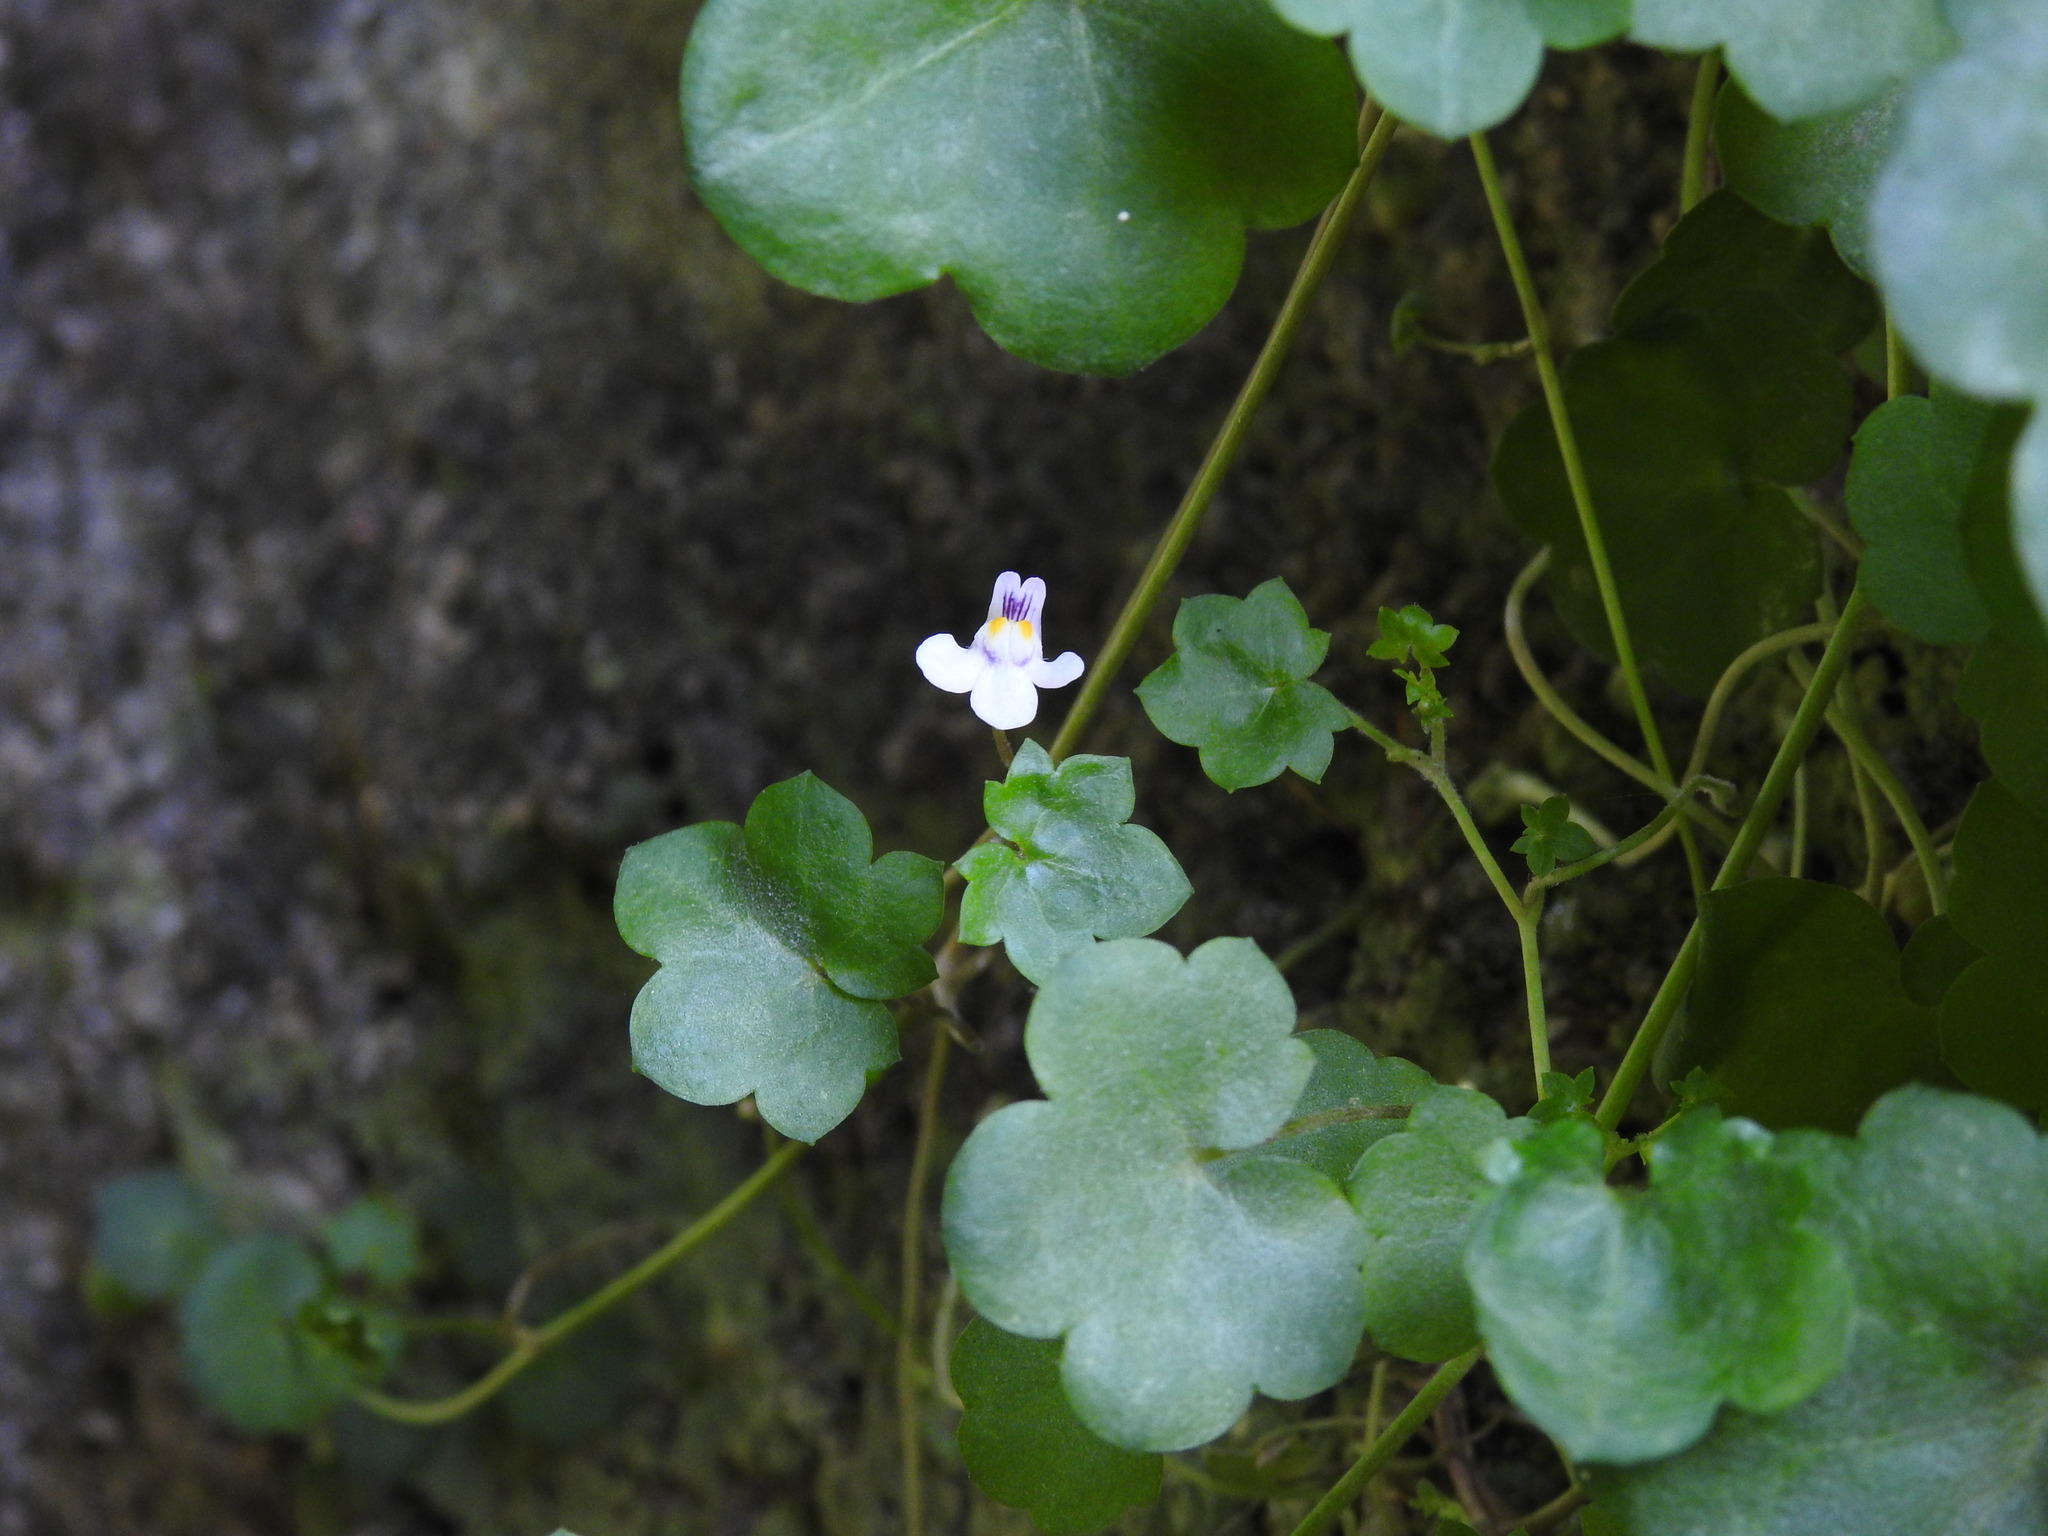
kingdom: Plantae
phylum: Tracheophyta
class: Magnoliopsida
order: Lamiales
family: Plantaginaceae
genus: Cymbalaria
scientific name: Cymbalaria muralis
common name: Ivy-leaved toadflax
